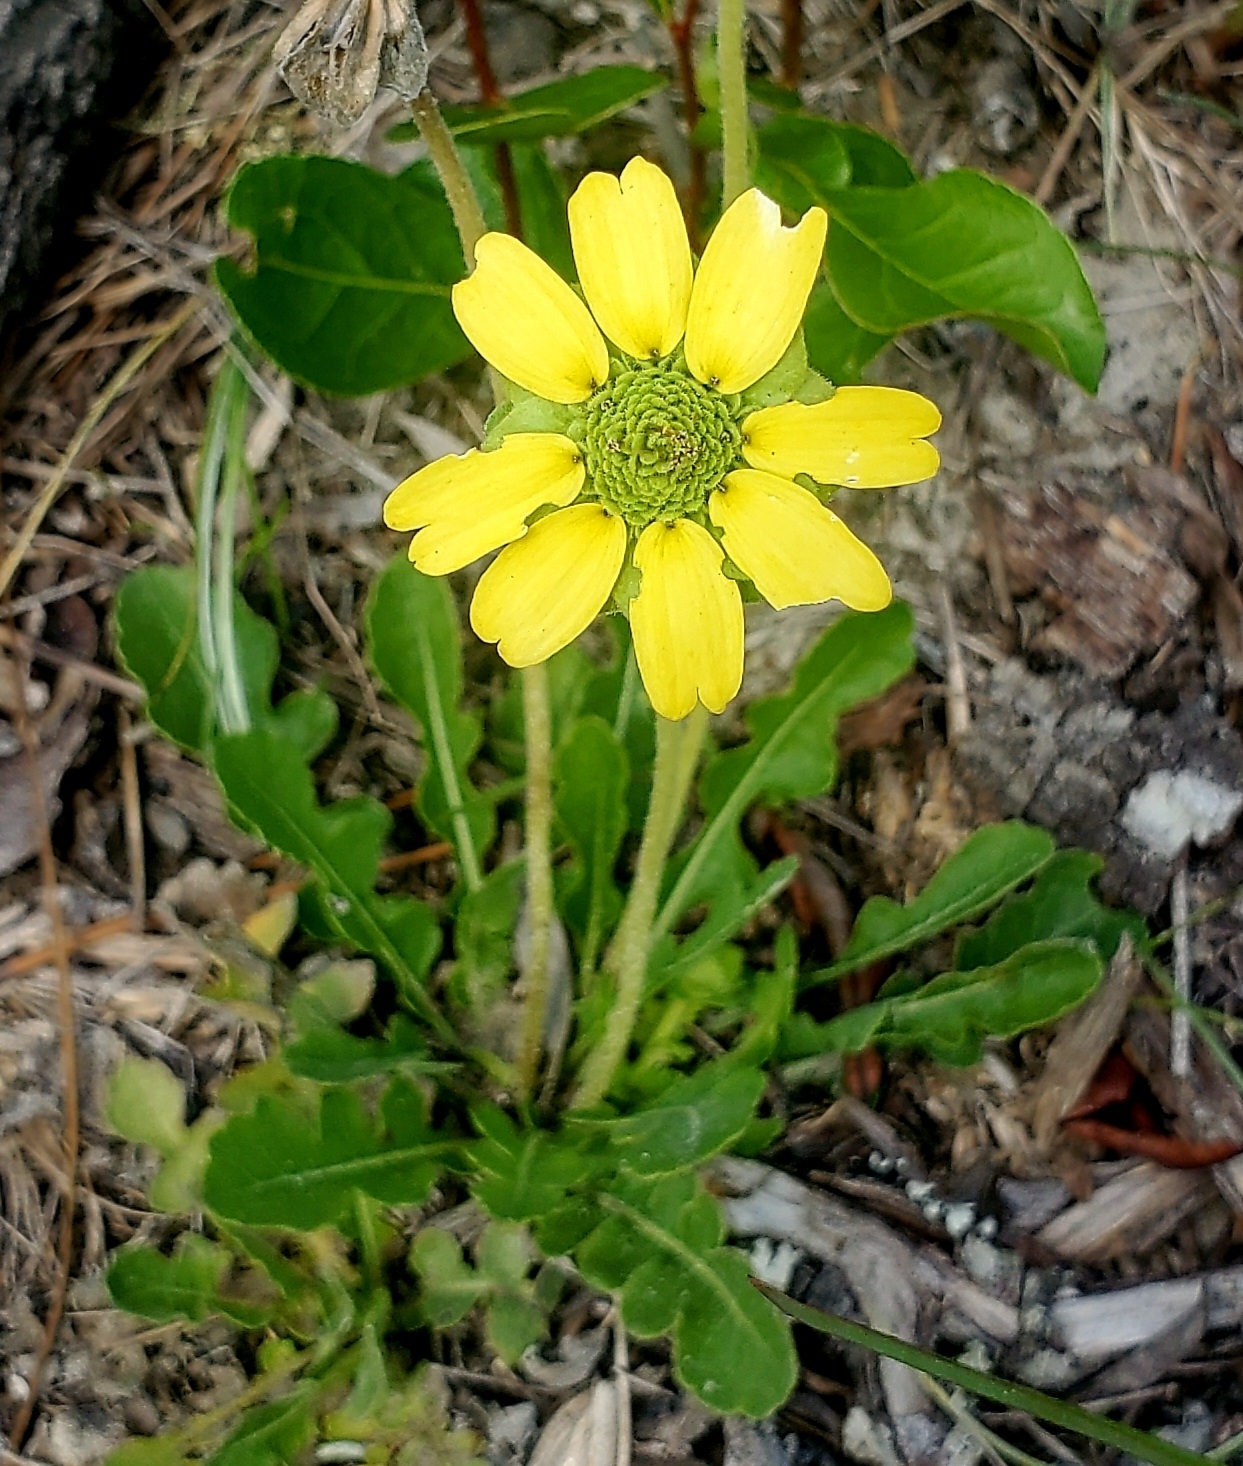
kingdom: Plantae
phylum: Tracheophyta
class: Magnoliopsida
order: Asterales
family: Asteraceae
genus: Berlandiera
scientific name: Berlandiera subacaulis
